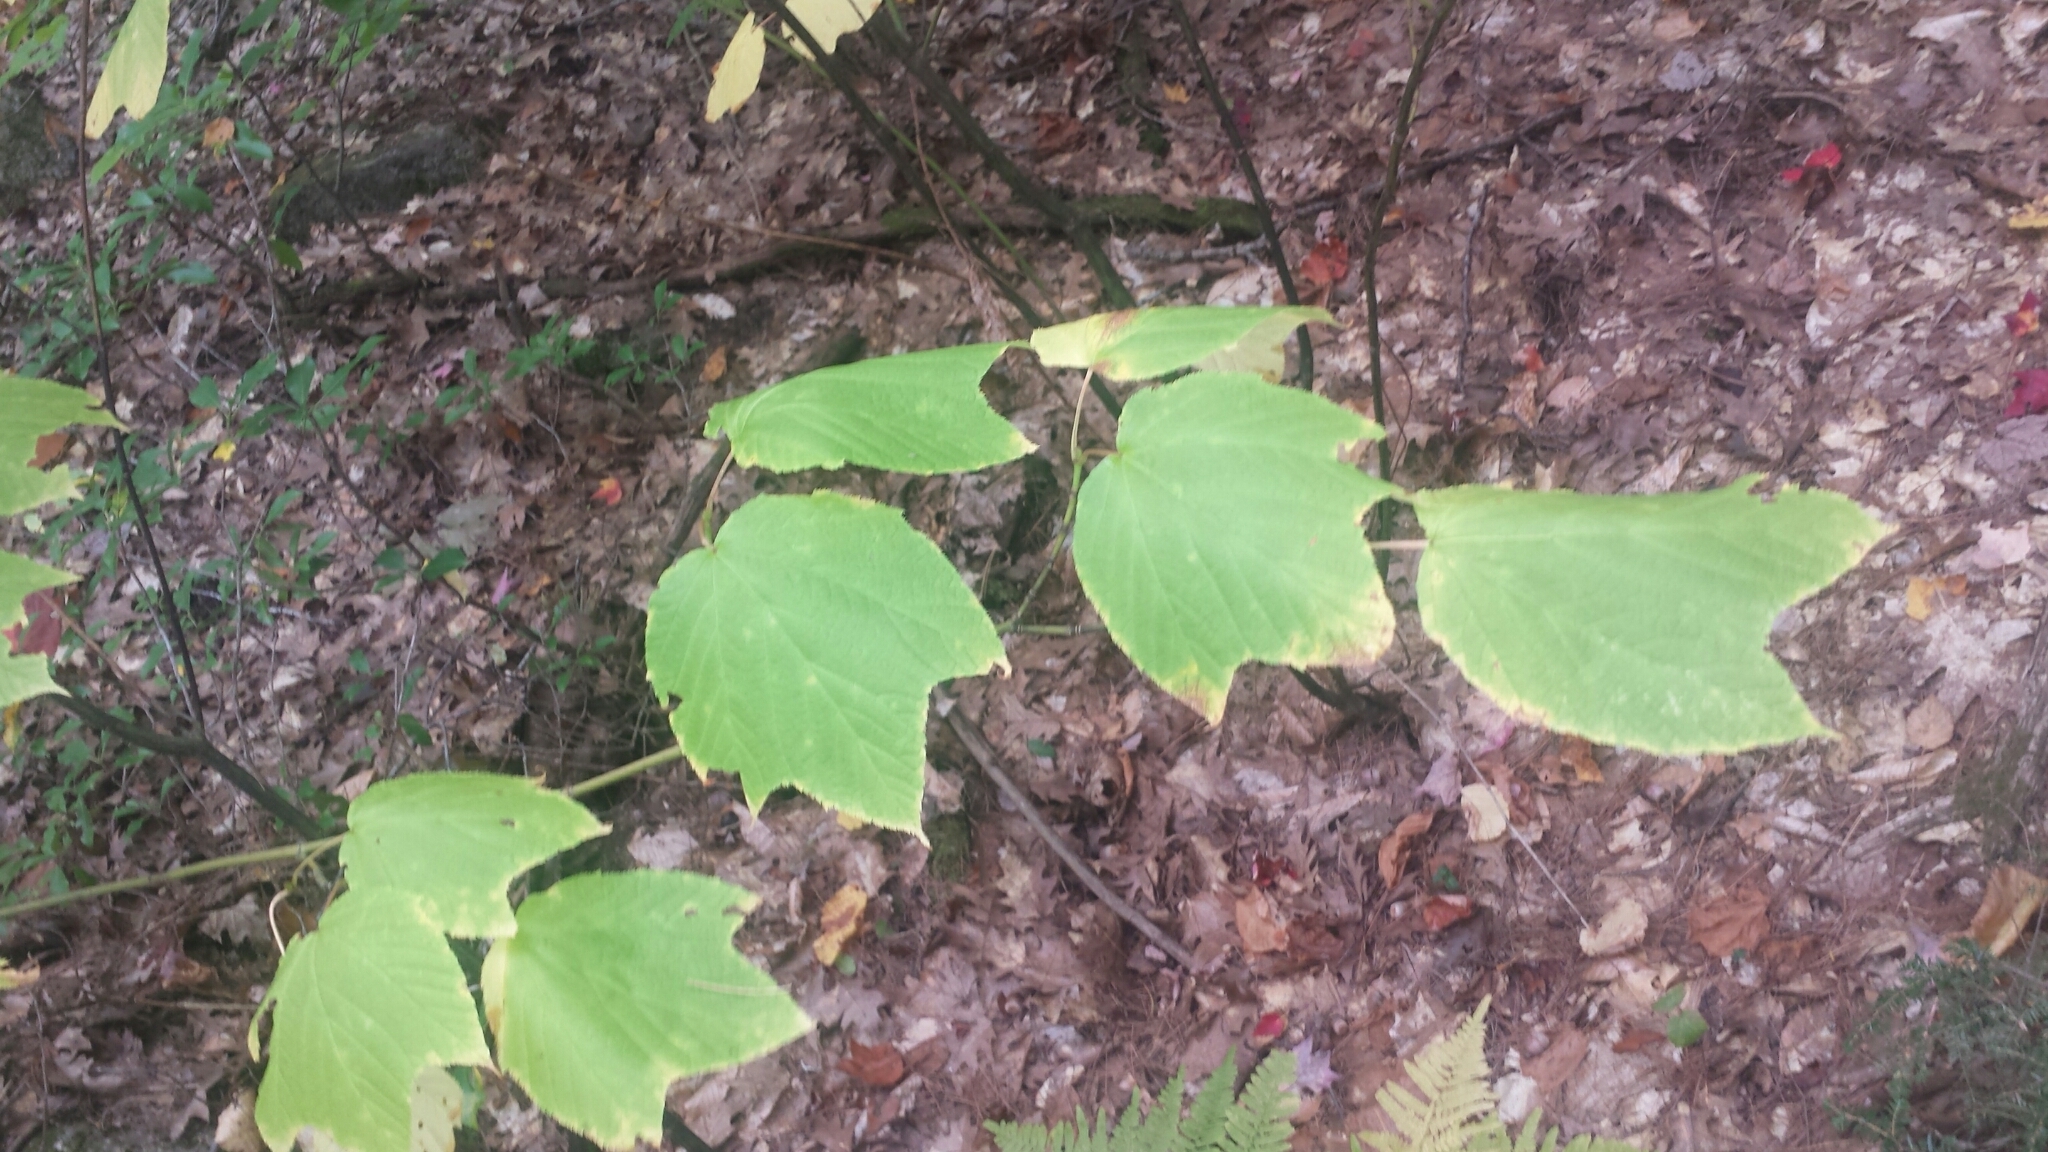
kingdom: Plantae
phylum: Tracheophyta
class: Magnoliopsida
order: Sapindales
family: Sapindaceae
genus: Acer
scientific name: Acer pensylvanicum
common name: Moosewood
